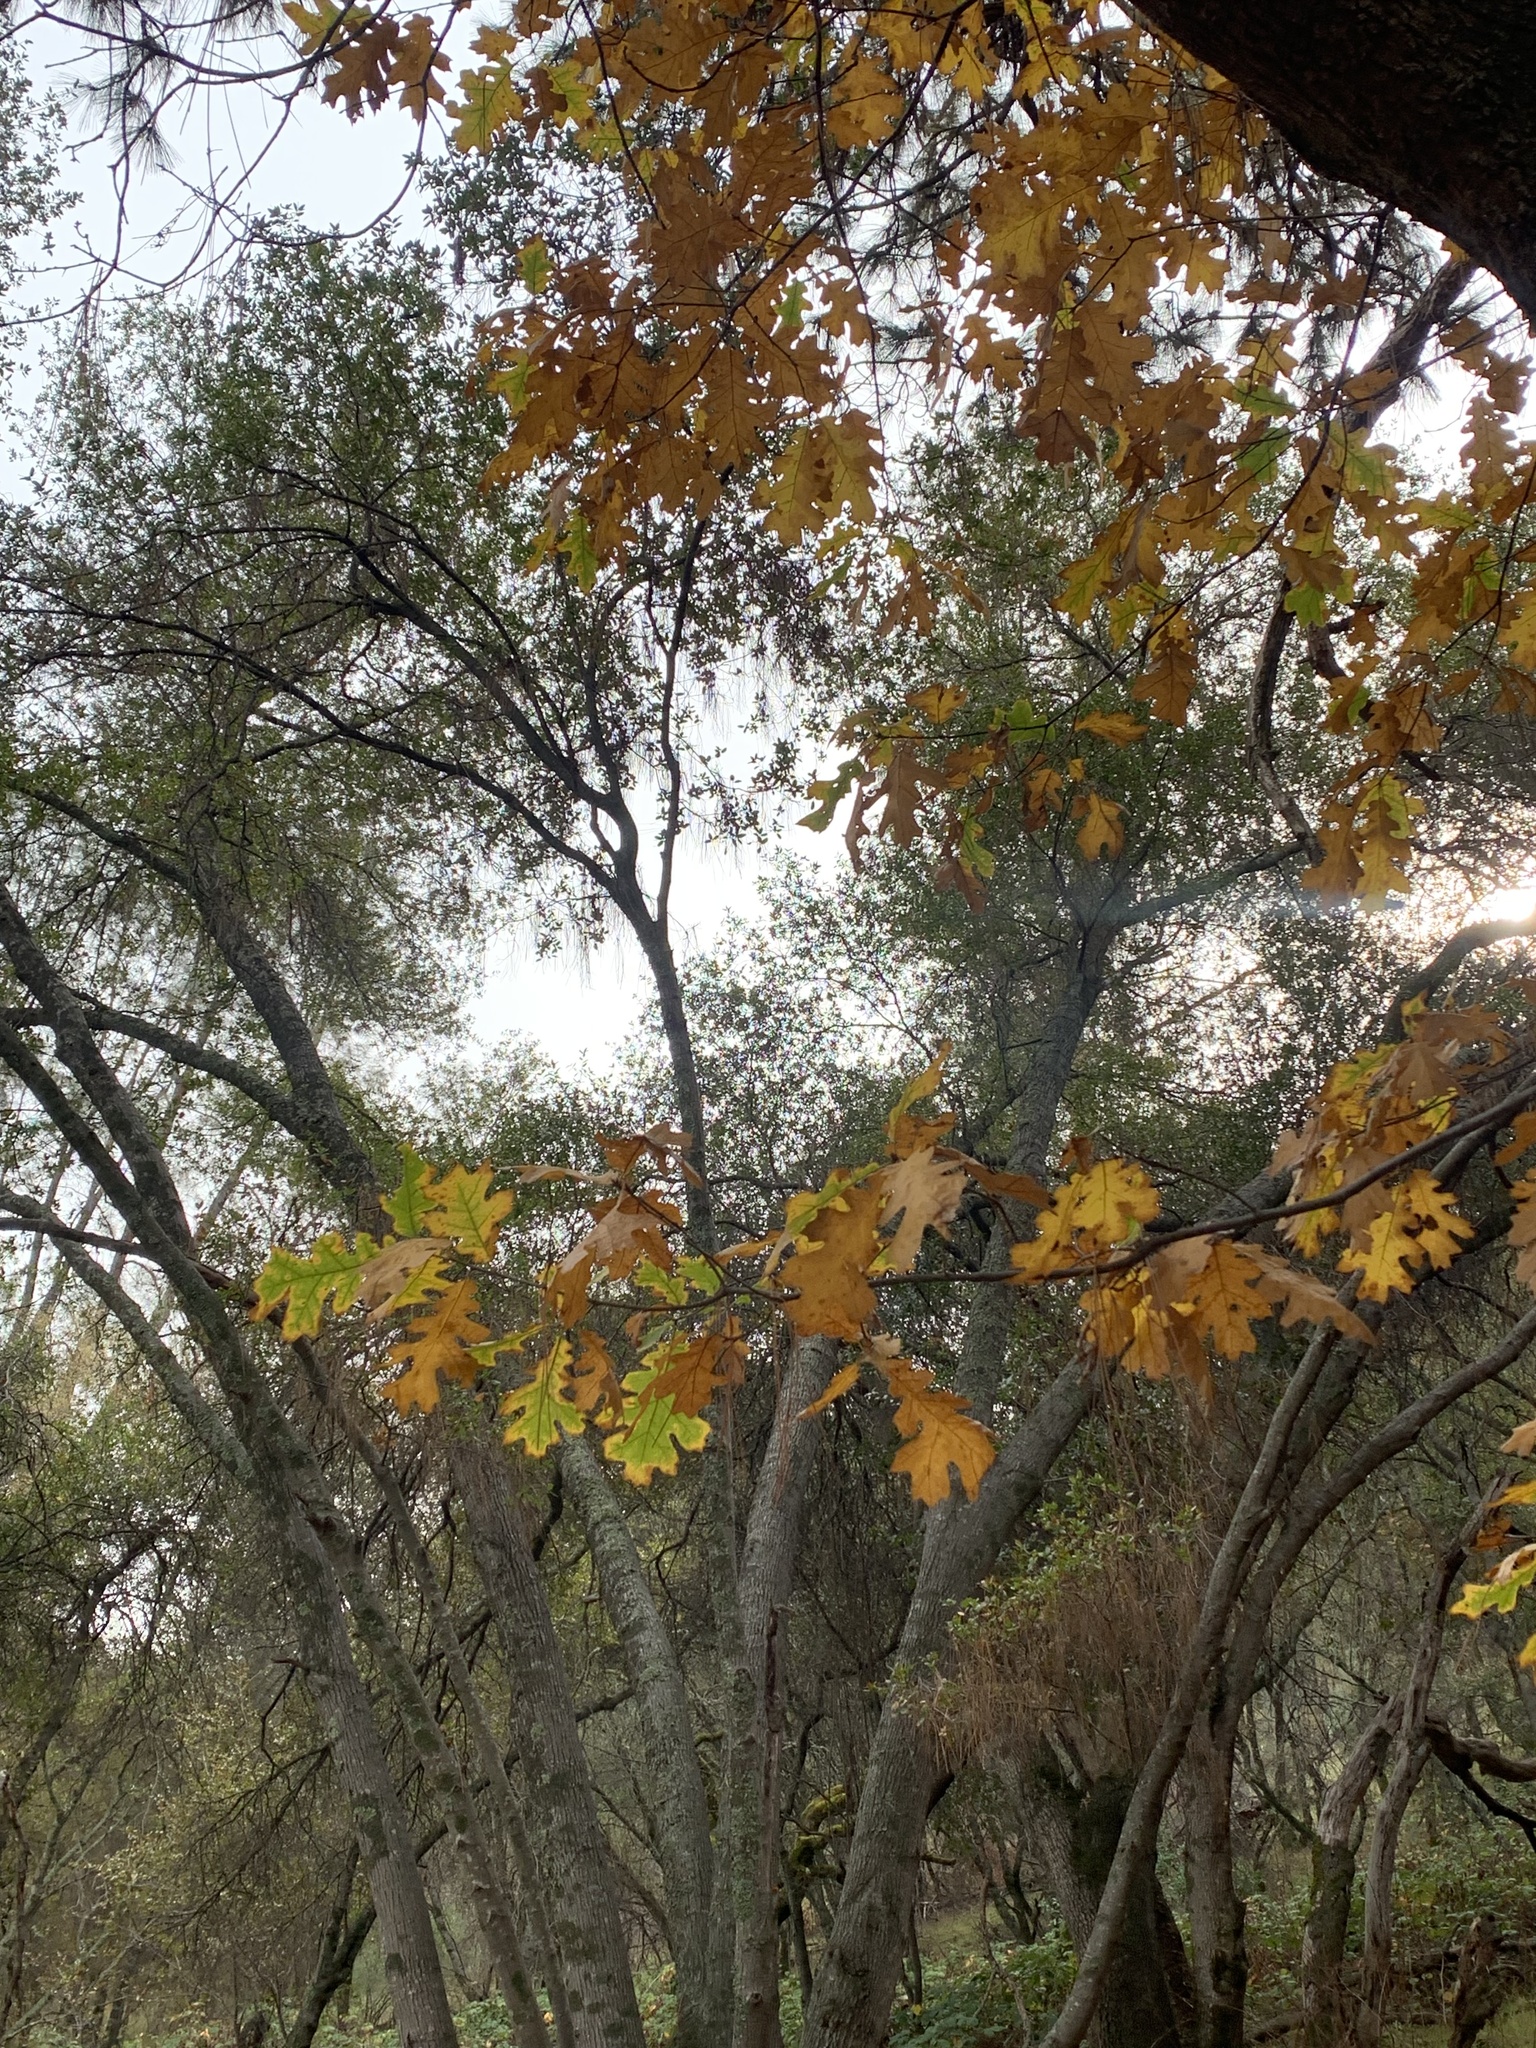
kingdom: Plantae
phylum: Tracheophyta
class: Magnoliopsida
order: Fagales
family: Fagaceae
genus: Quercus
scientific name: Quercus kelloggii
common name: California black oak
